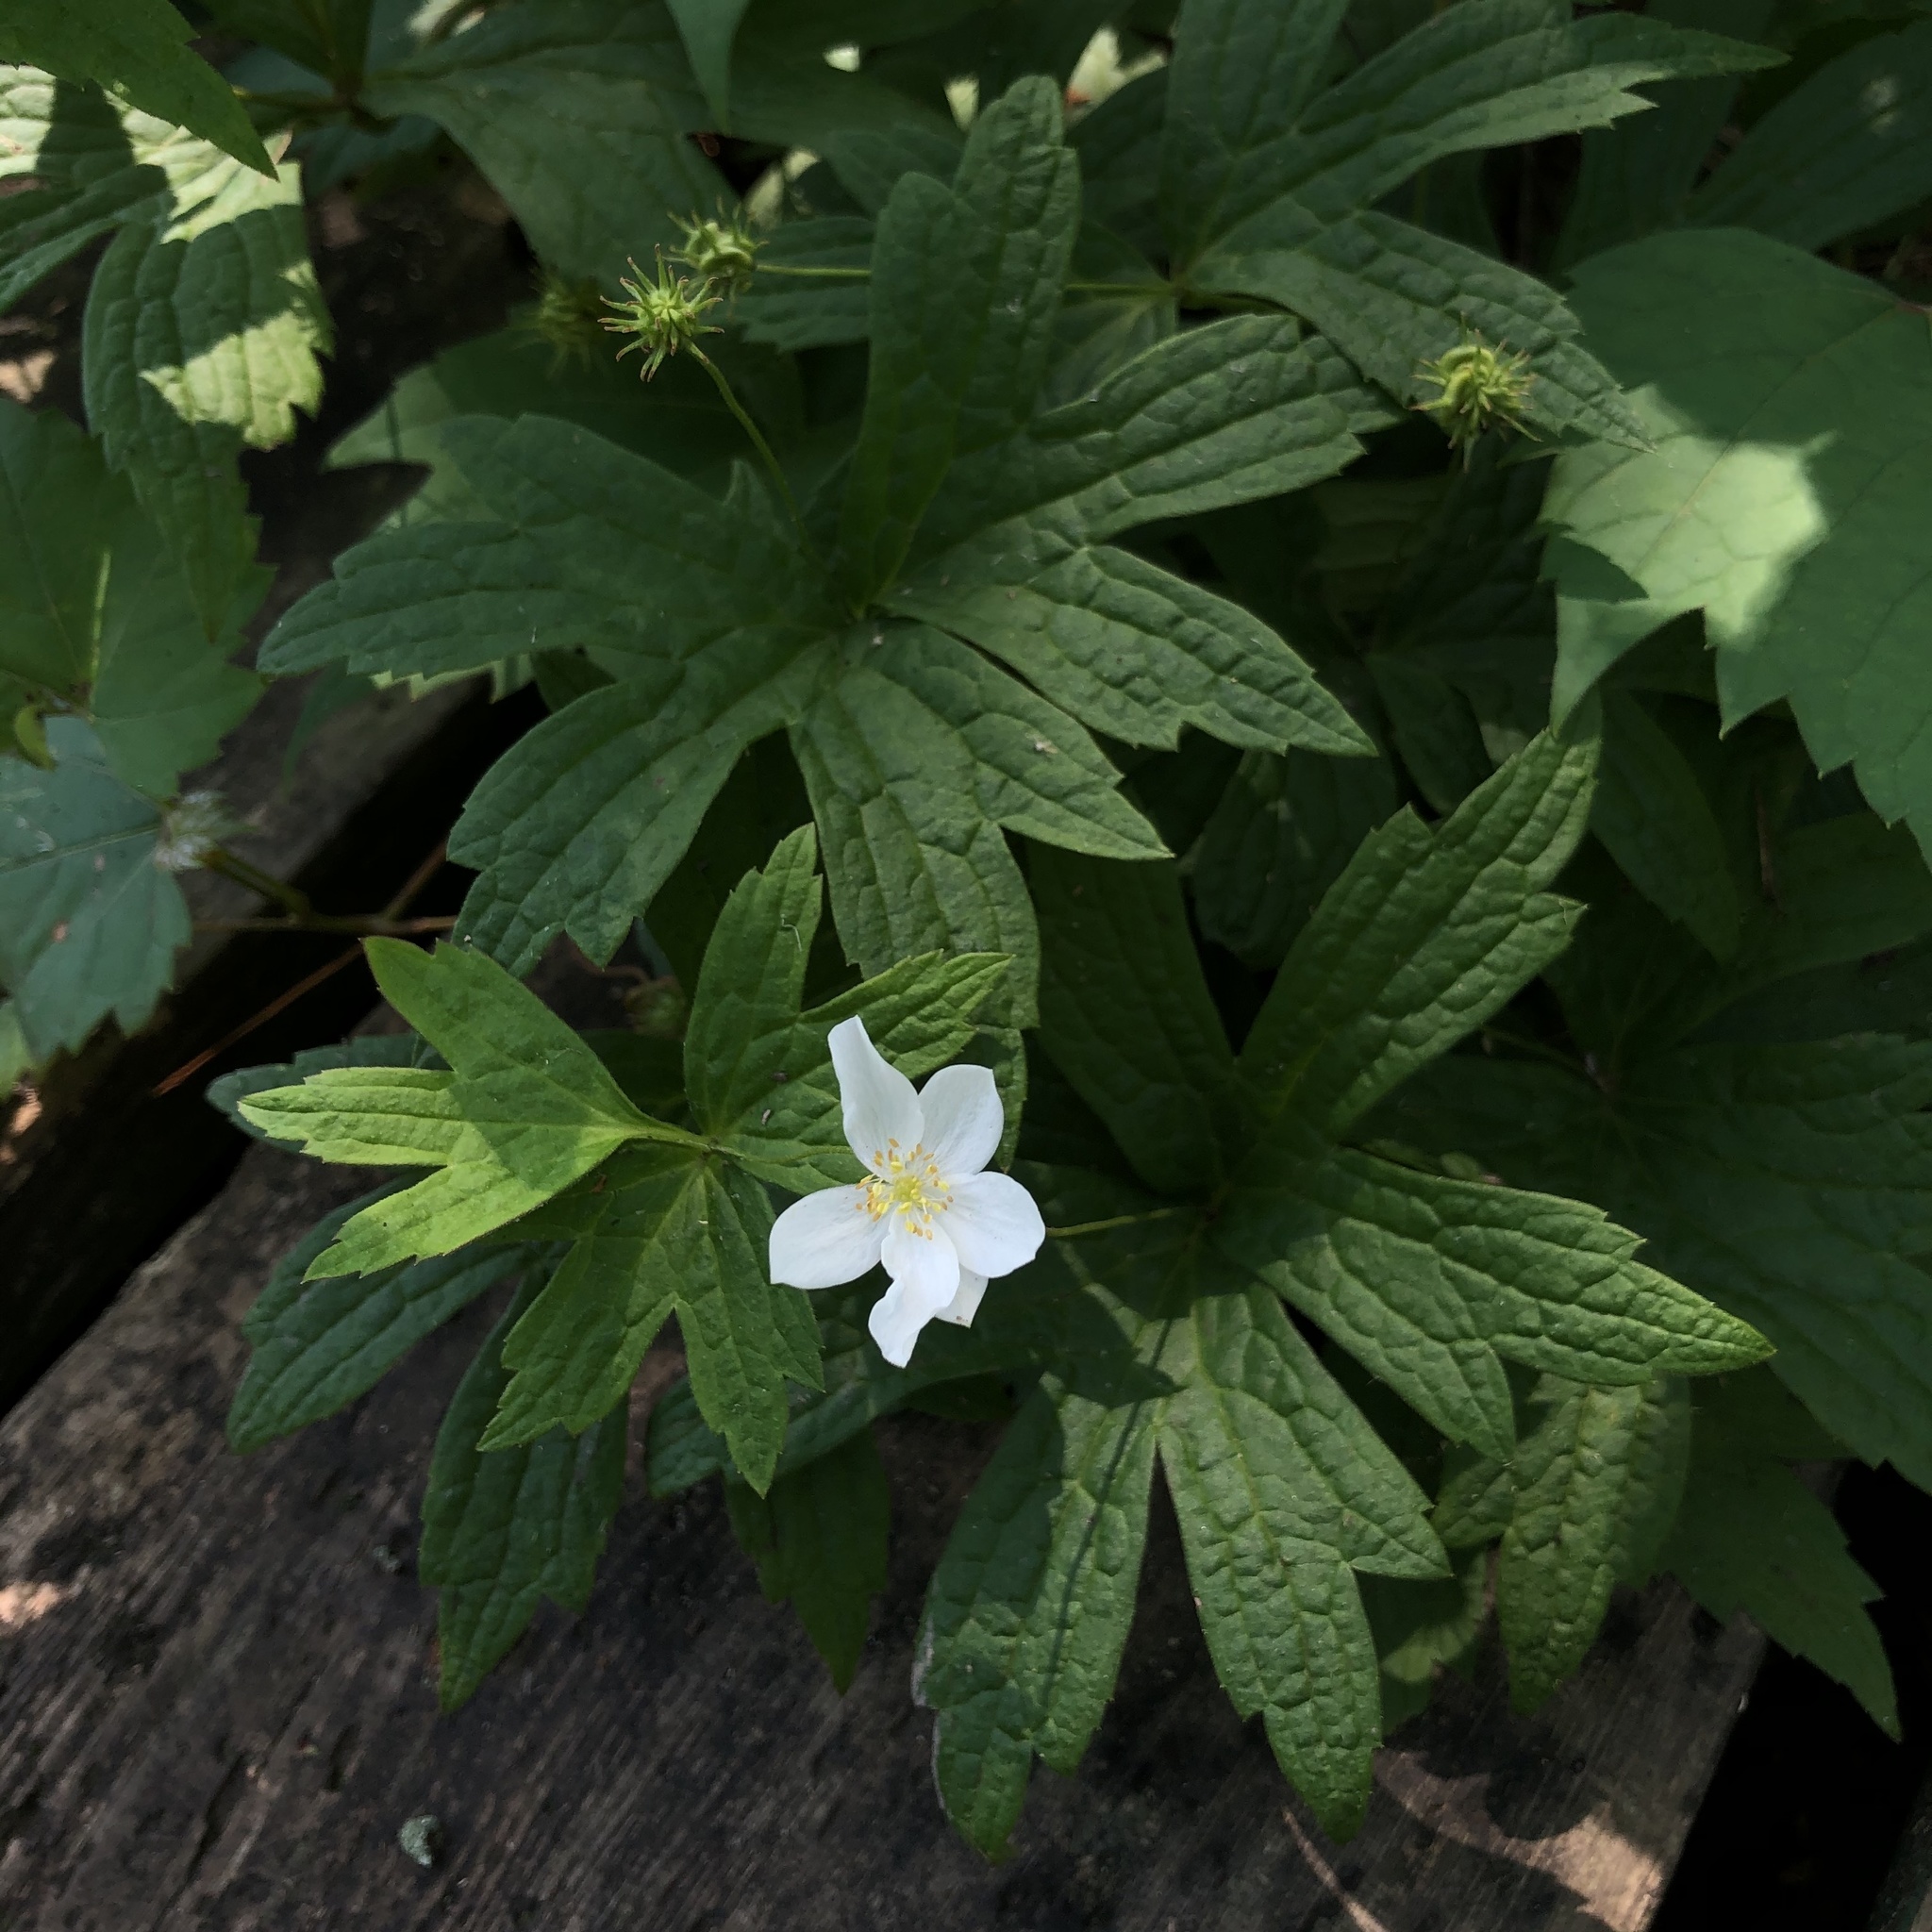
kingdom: Plantae
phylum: Tracheophyta
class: Magnoliopsida
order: Ranunculales
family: Ranunculaceae
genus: Anemonastrum
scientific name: Anemonastrum canadense
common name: Canada anemone
